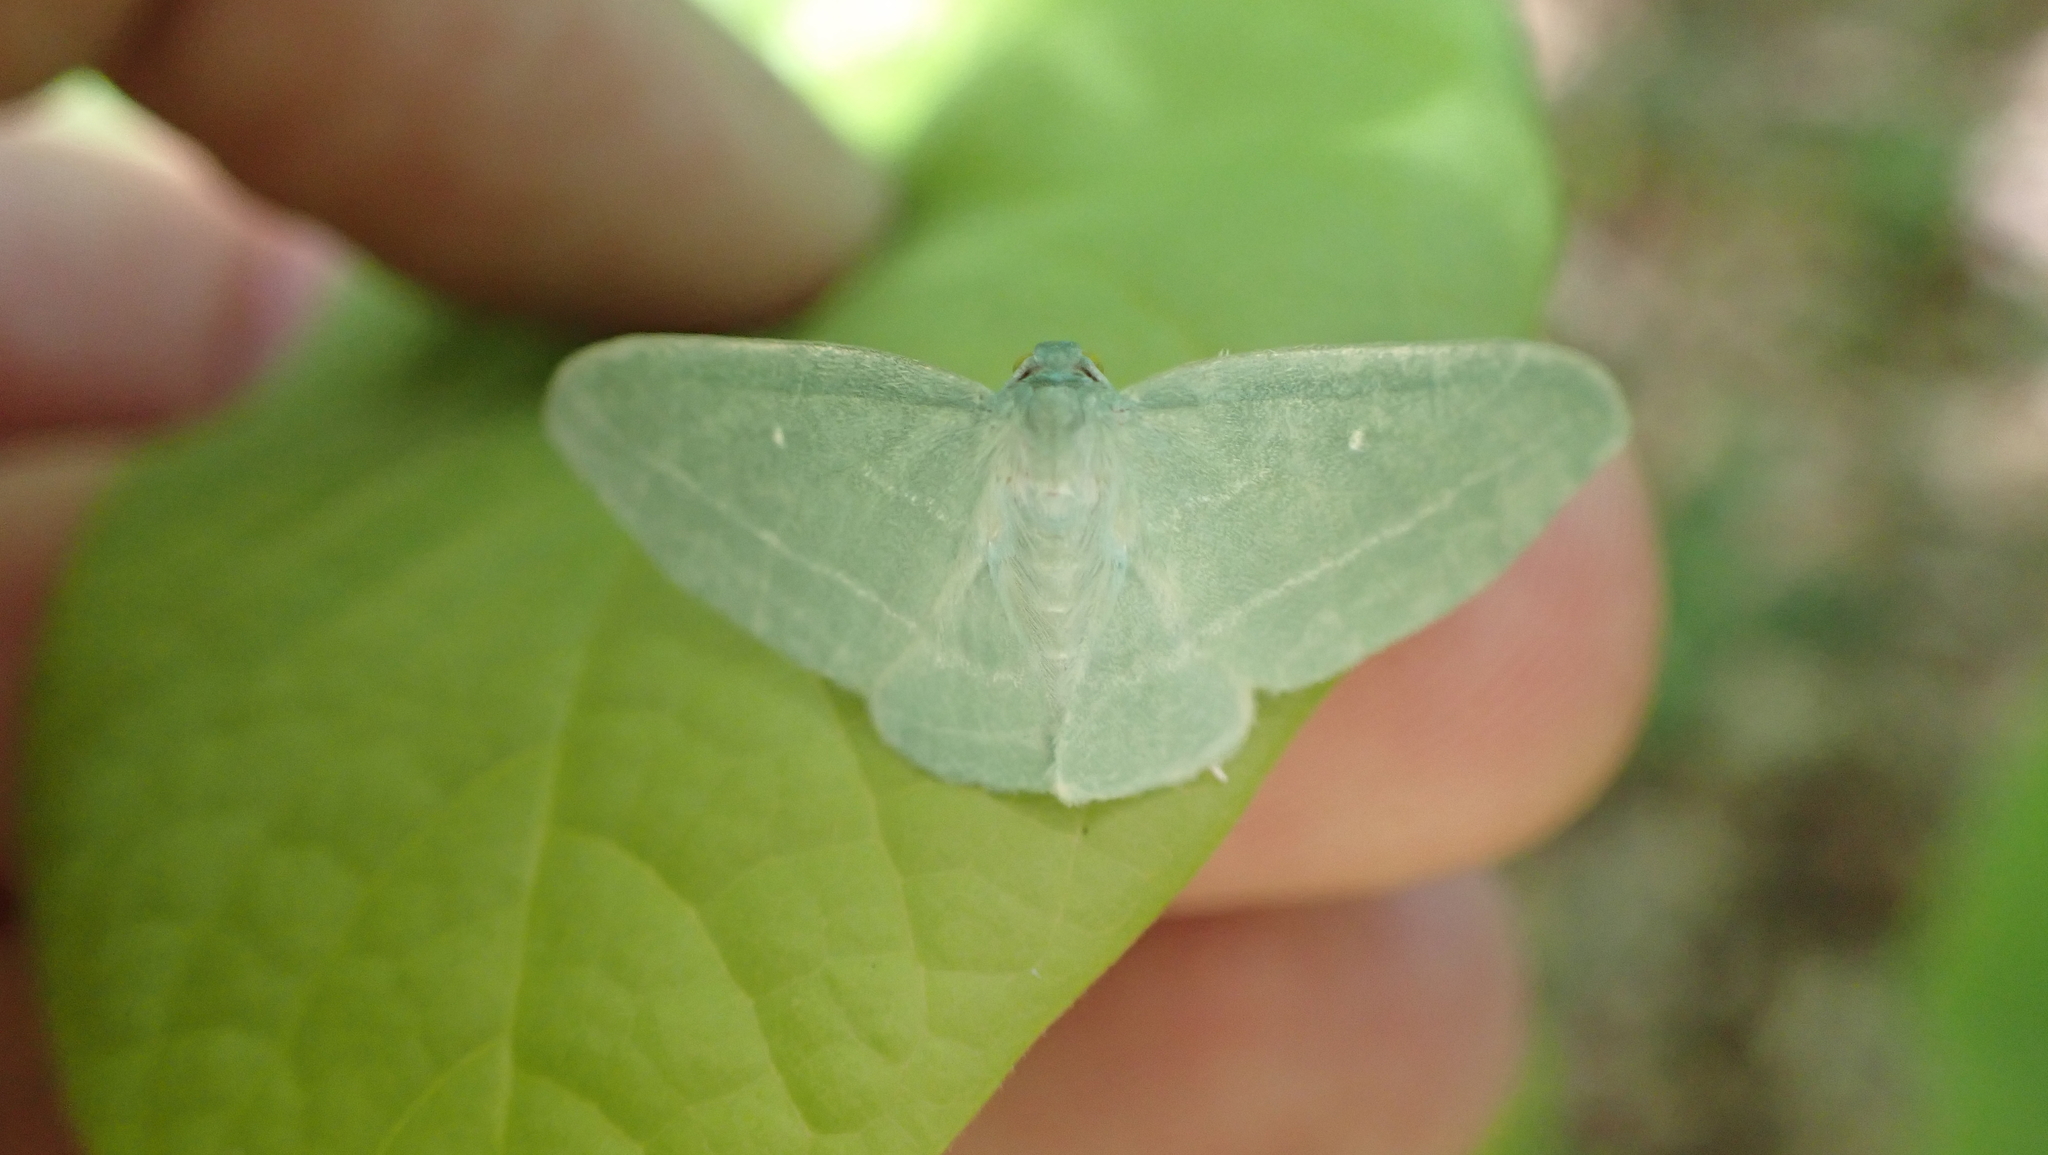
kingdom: Animalia
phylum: Arthropoda
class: Insecta
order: Lepidoptera
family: Geometridae
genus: Dyspteris
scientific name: Dyspteris abortivaria
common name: Bad-wing
